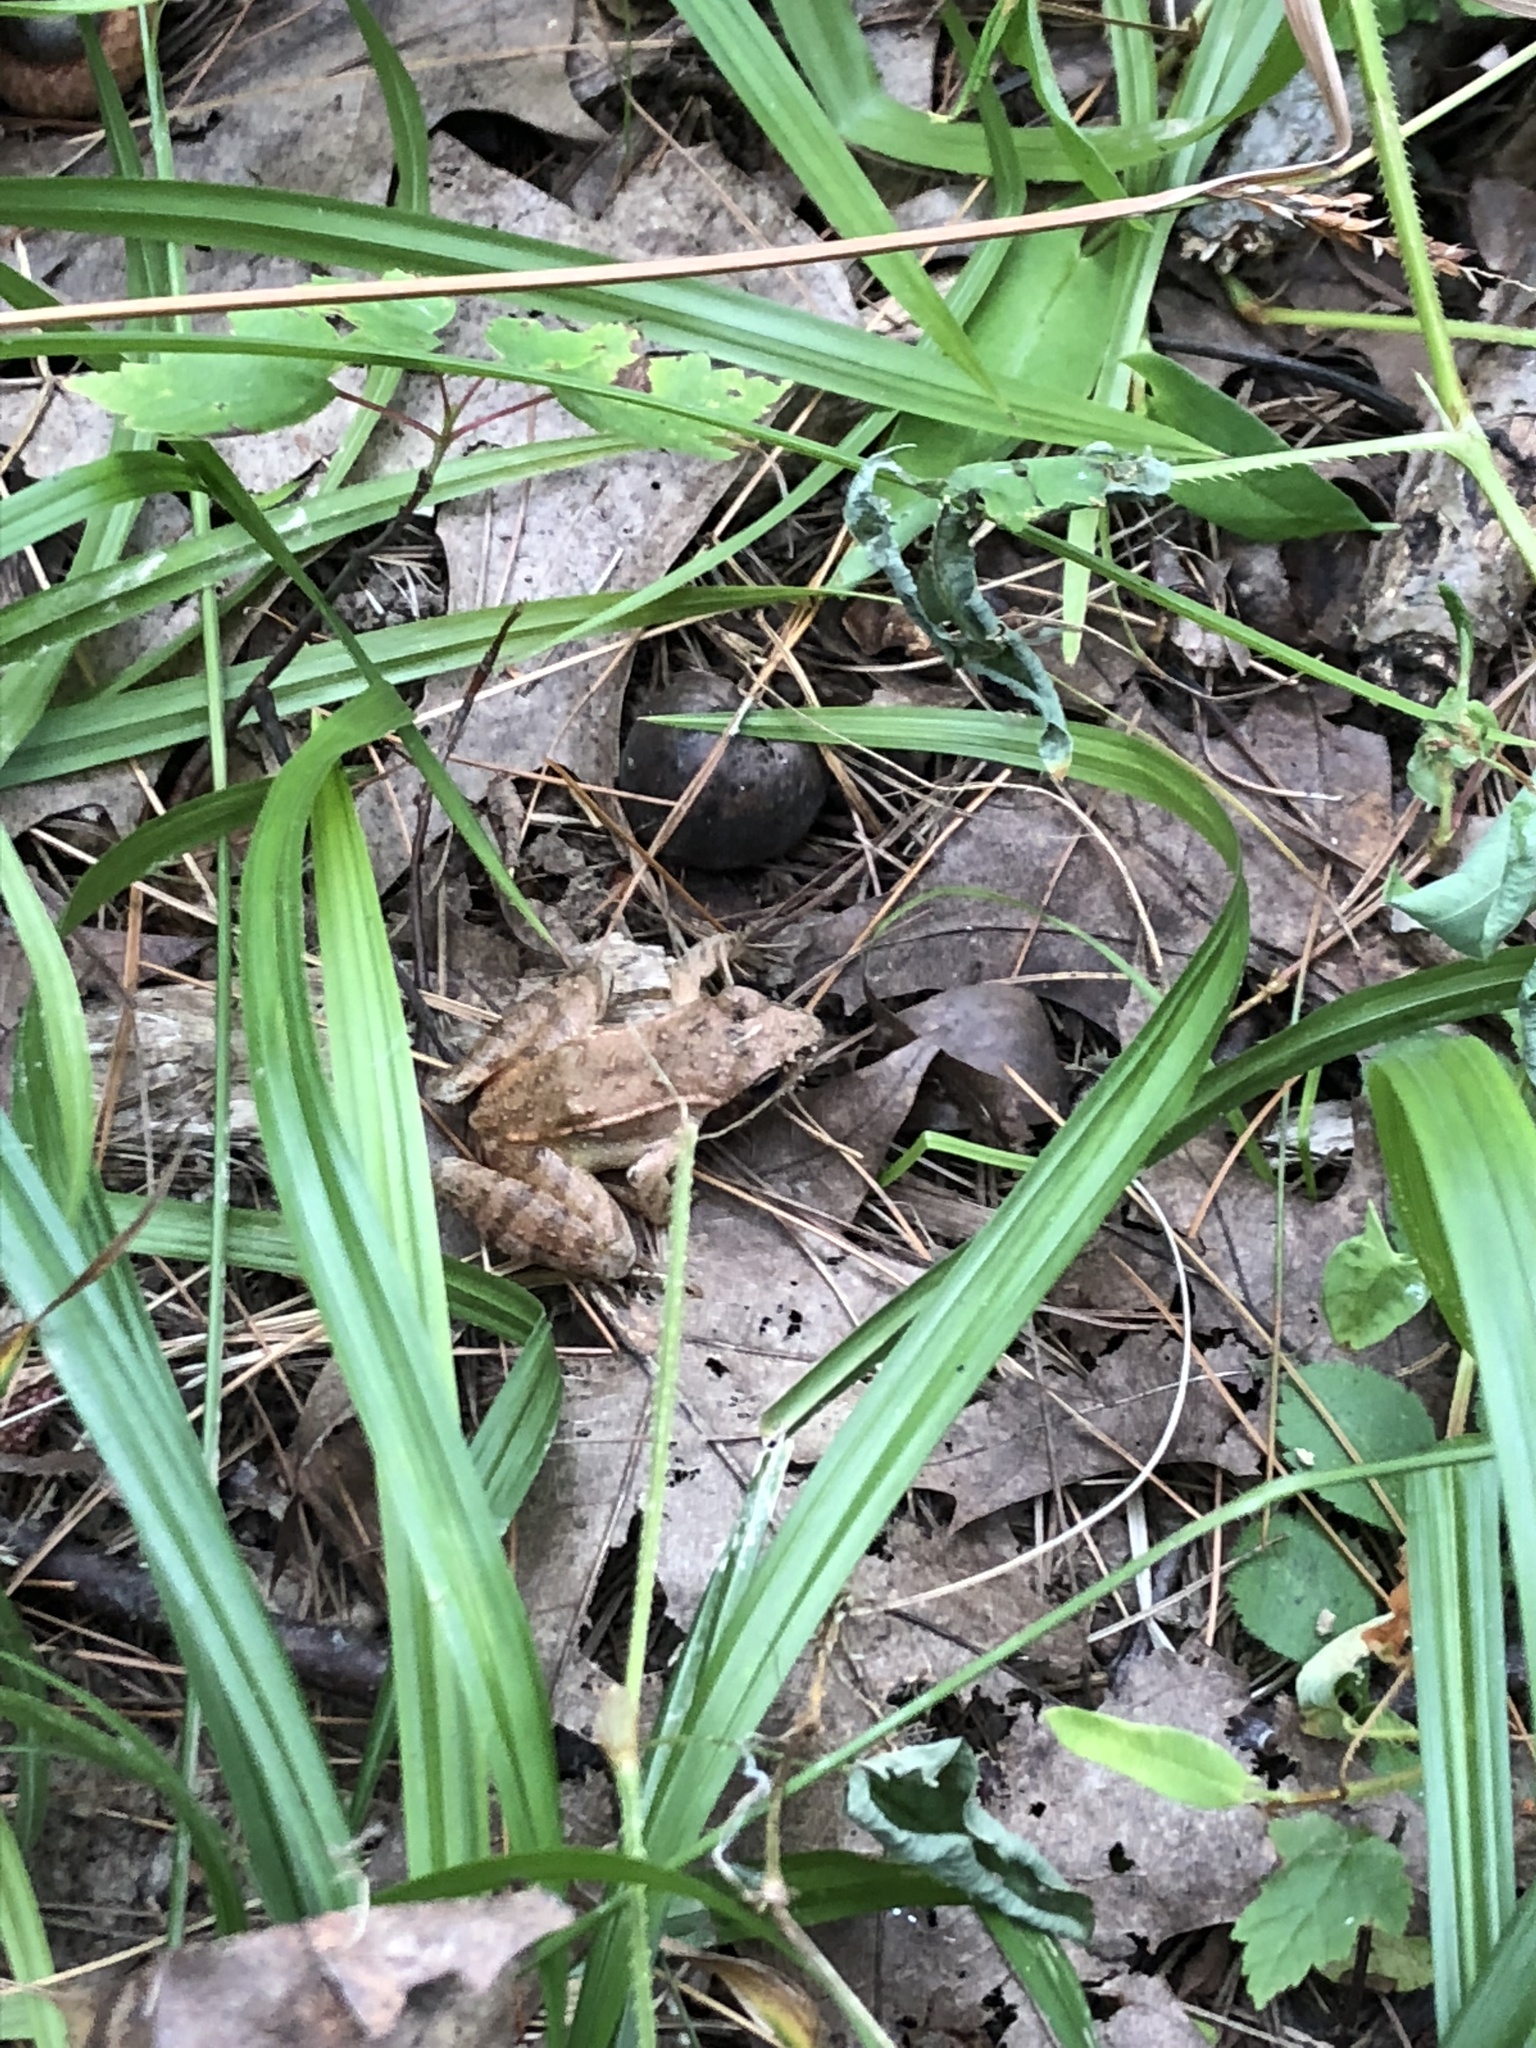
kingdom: Animalia
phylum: Chordata
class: Amphibia
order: Anura
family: Ranidae
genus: Lithobates
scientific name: Lithobates sylvaticus
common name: Wood frog
